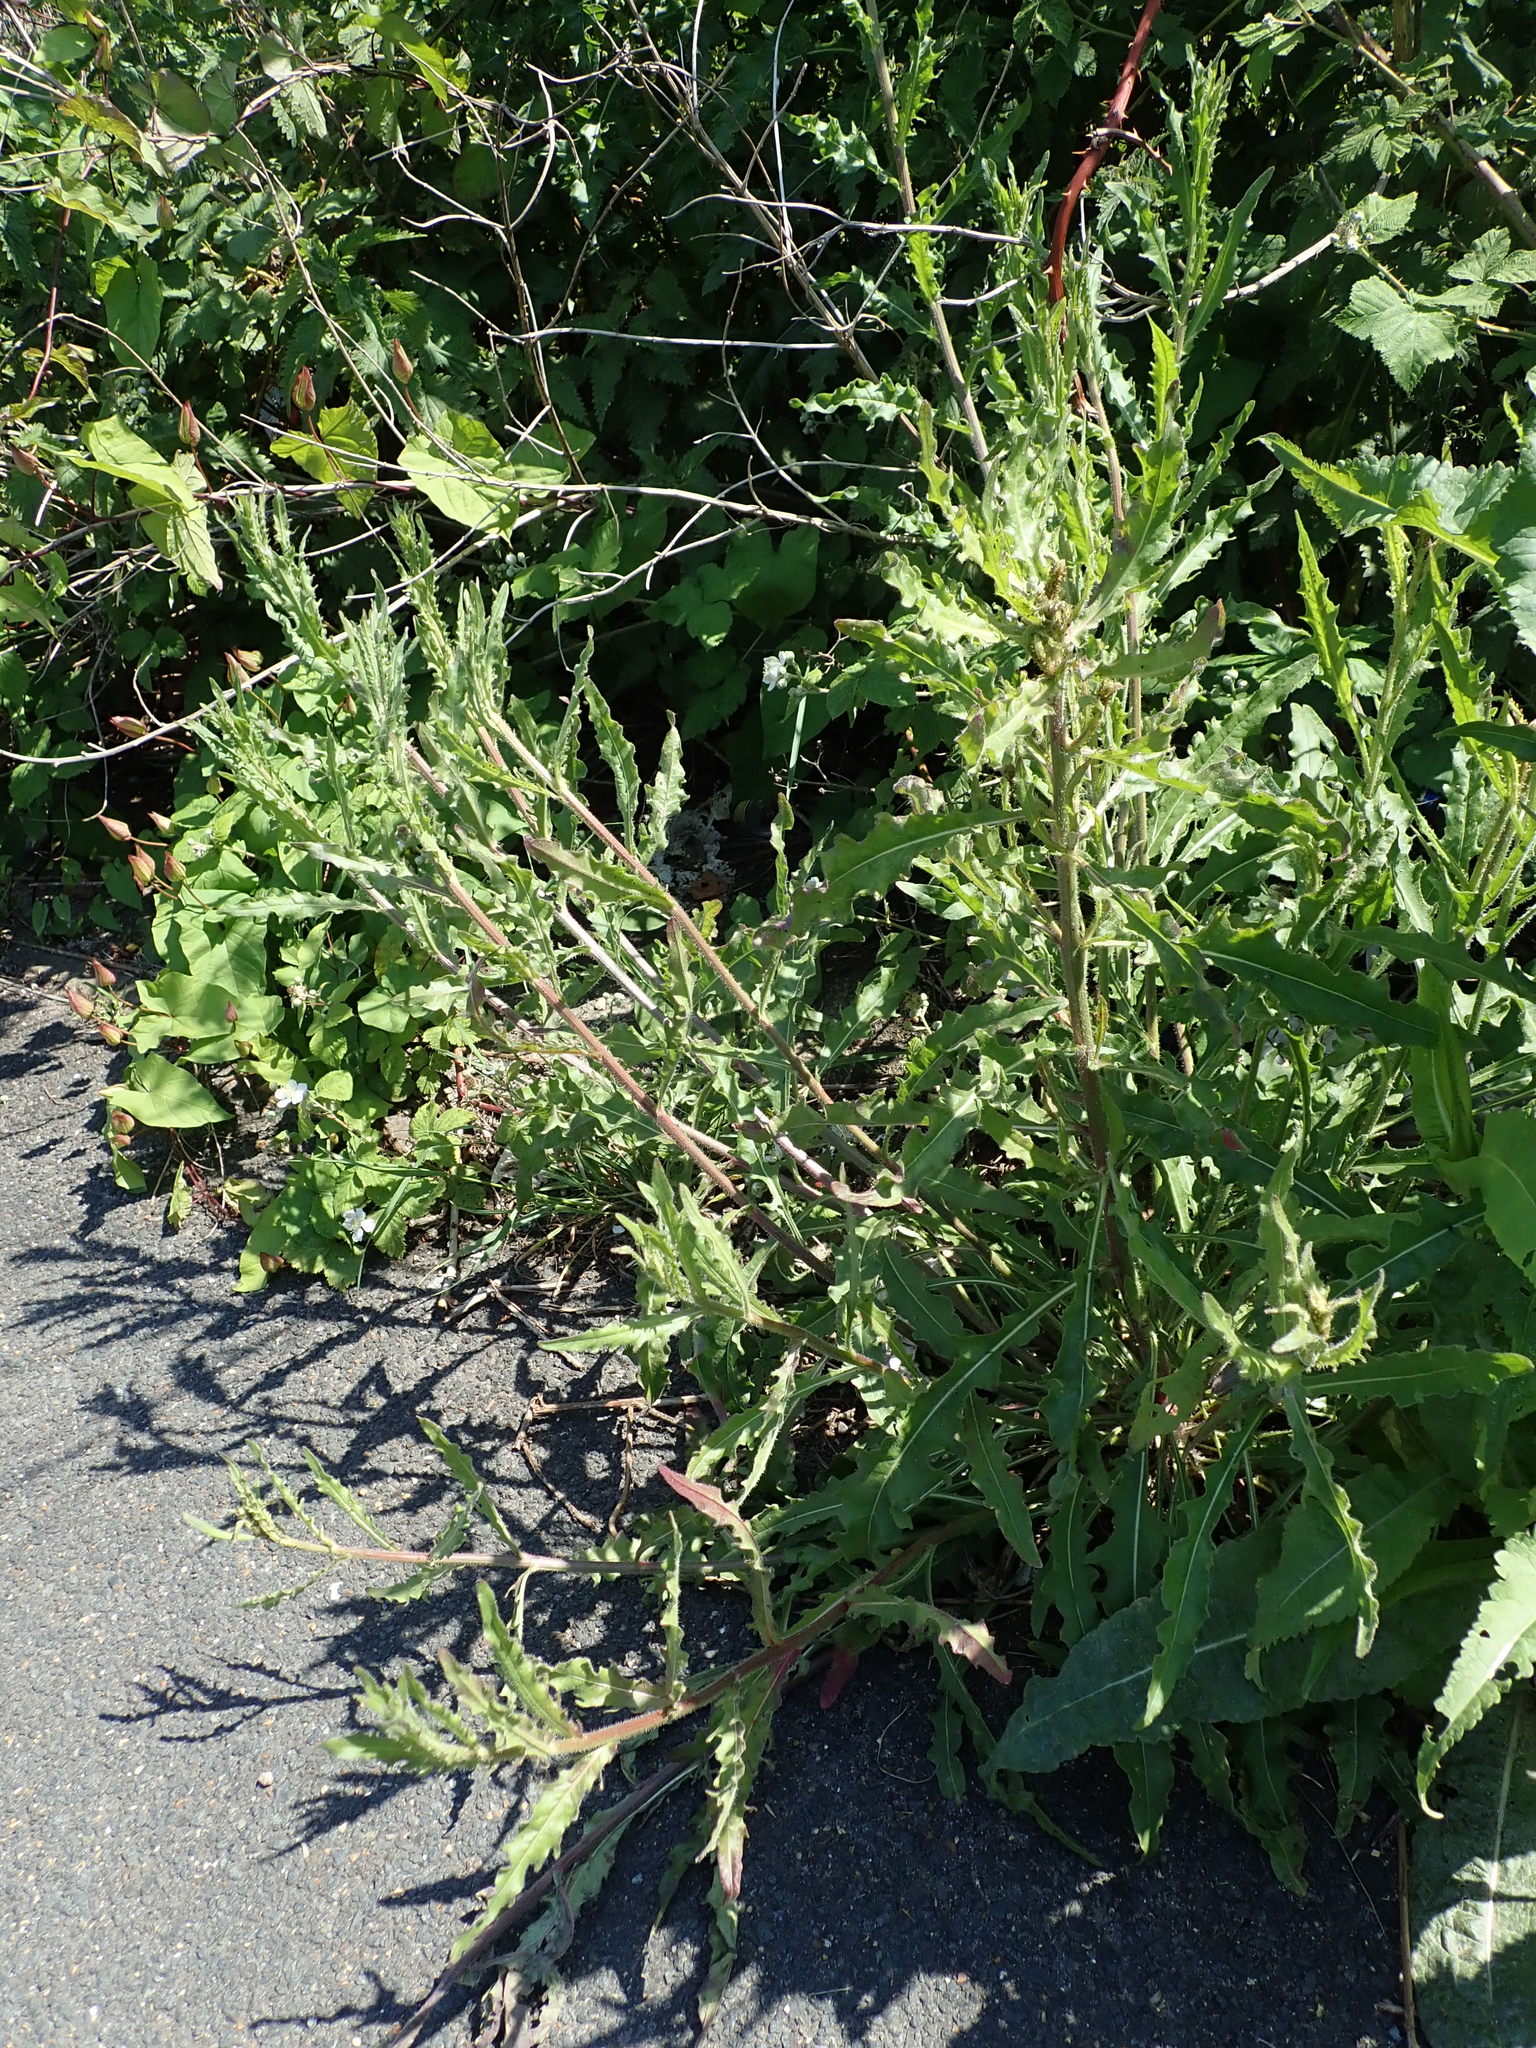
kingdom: Plantae
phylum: Tracheophyta
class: Magnoliopsida
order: Asterales
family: Asteraceae
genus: Picris
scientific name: Picris hieracioides
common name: Hawkweed oxtongue
